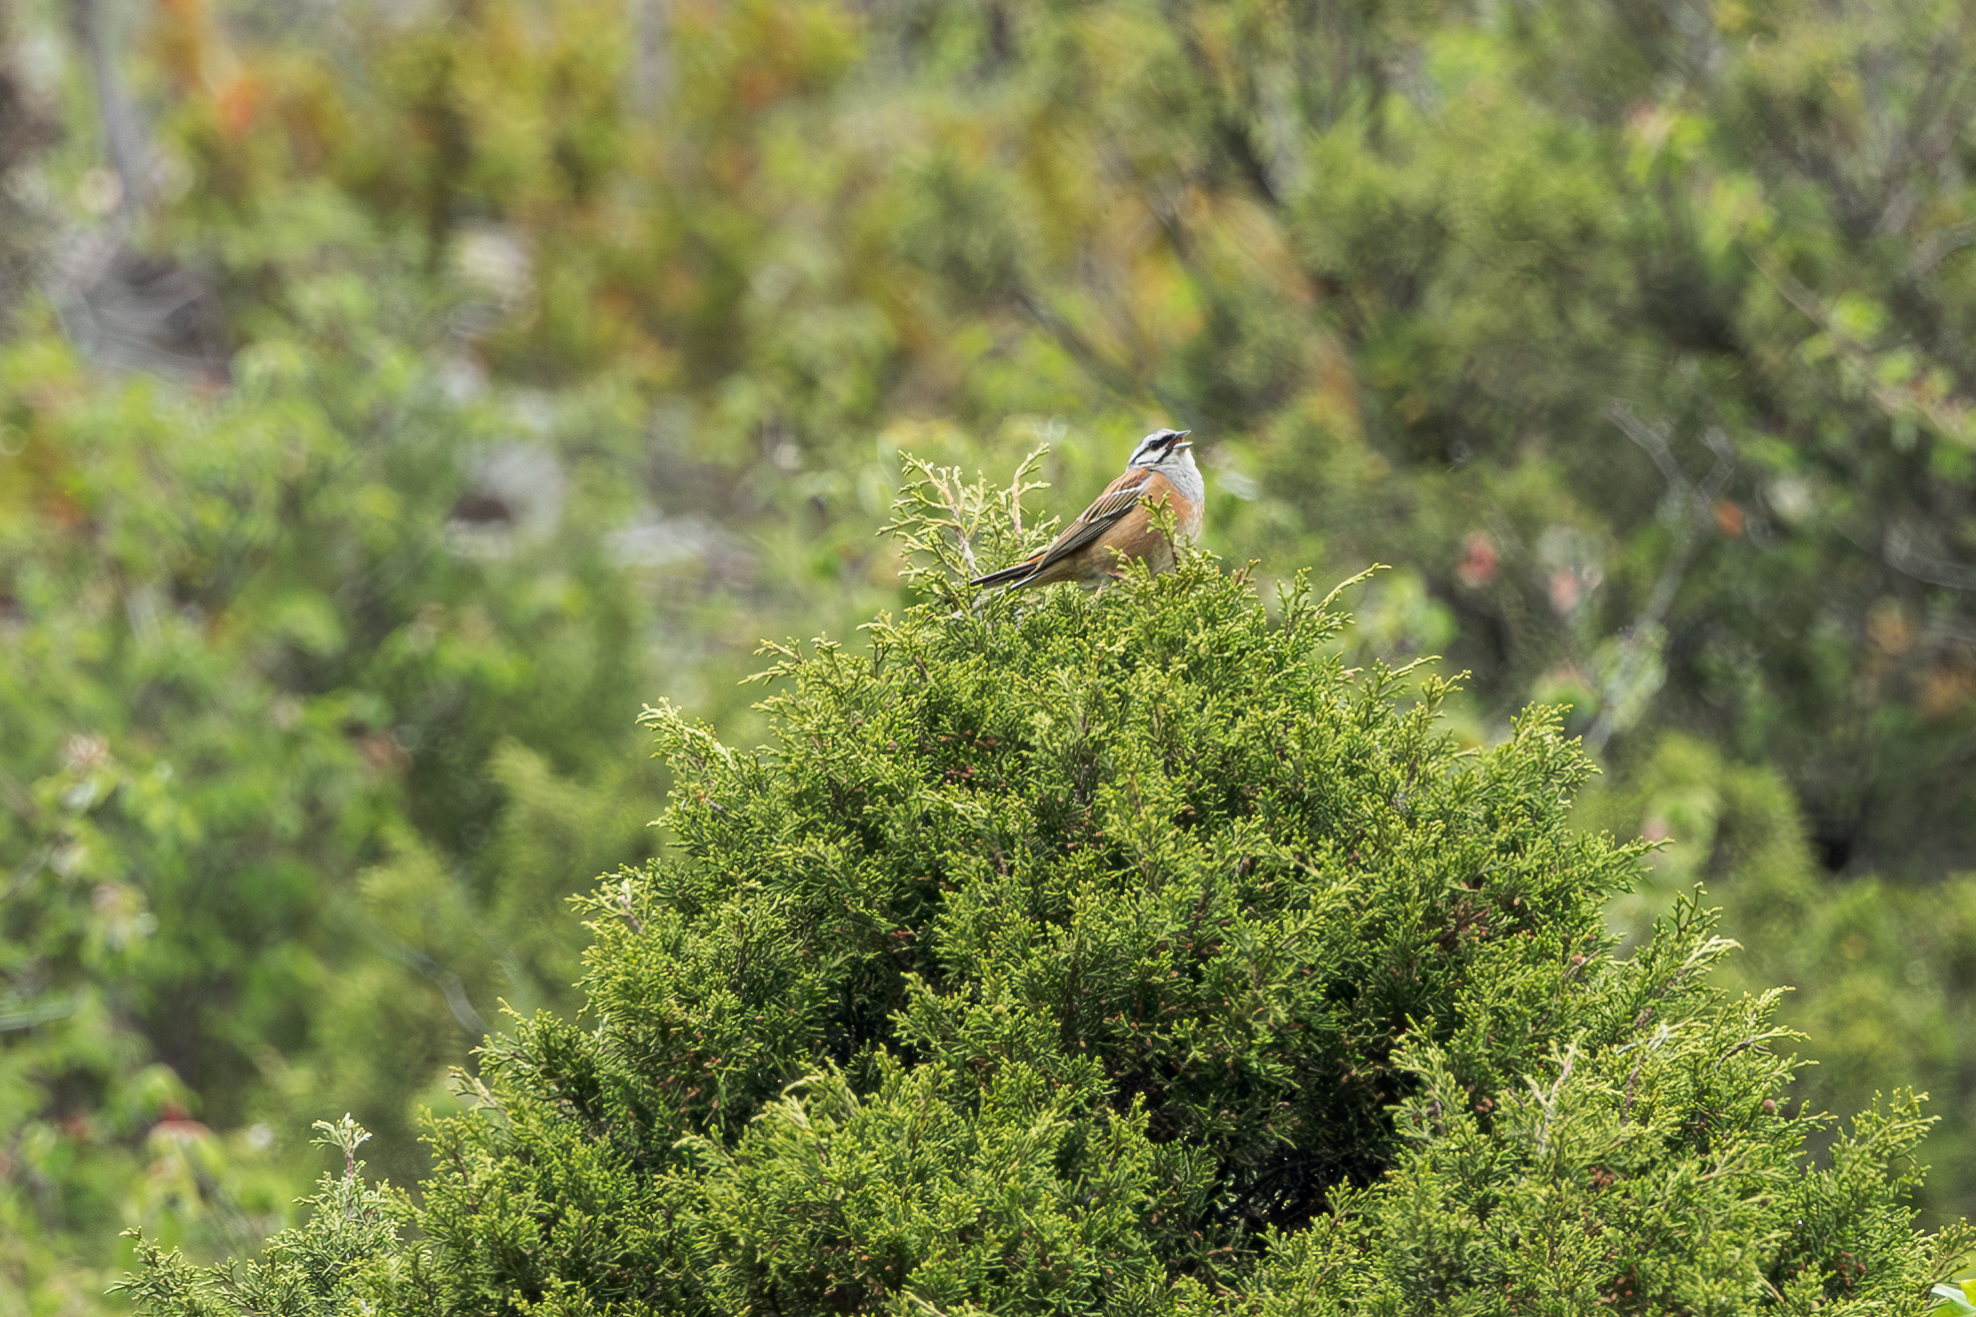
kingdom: Animalia
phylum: Chordata
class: Aves
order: Passeriformes
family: Emberizidae
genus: Emberiza
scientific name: Emberiza cia
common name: Rock bunting
